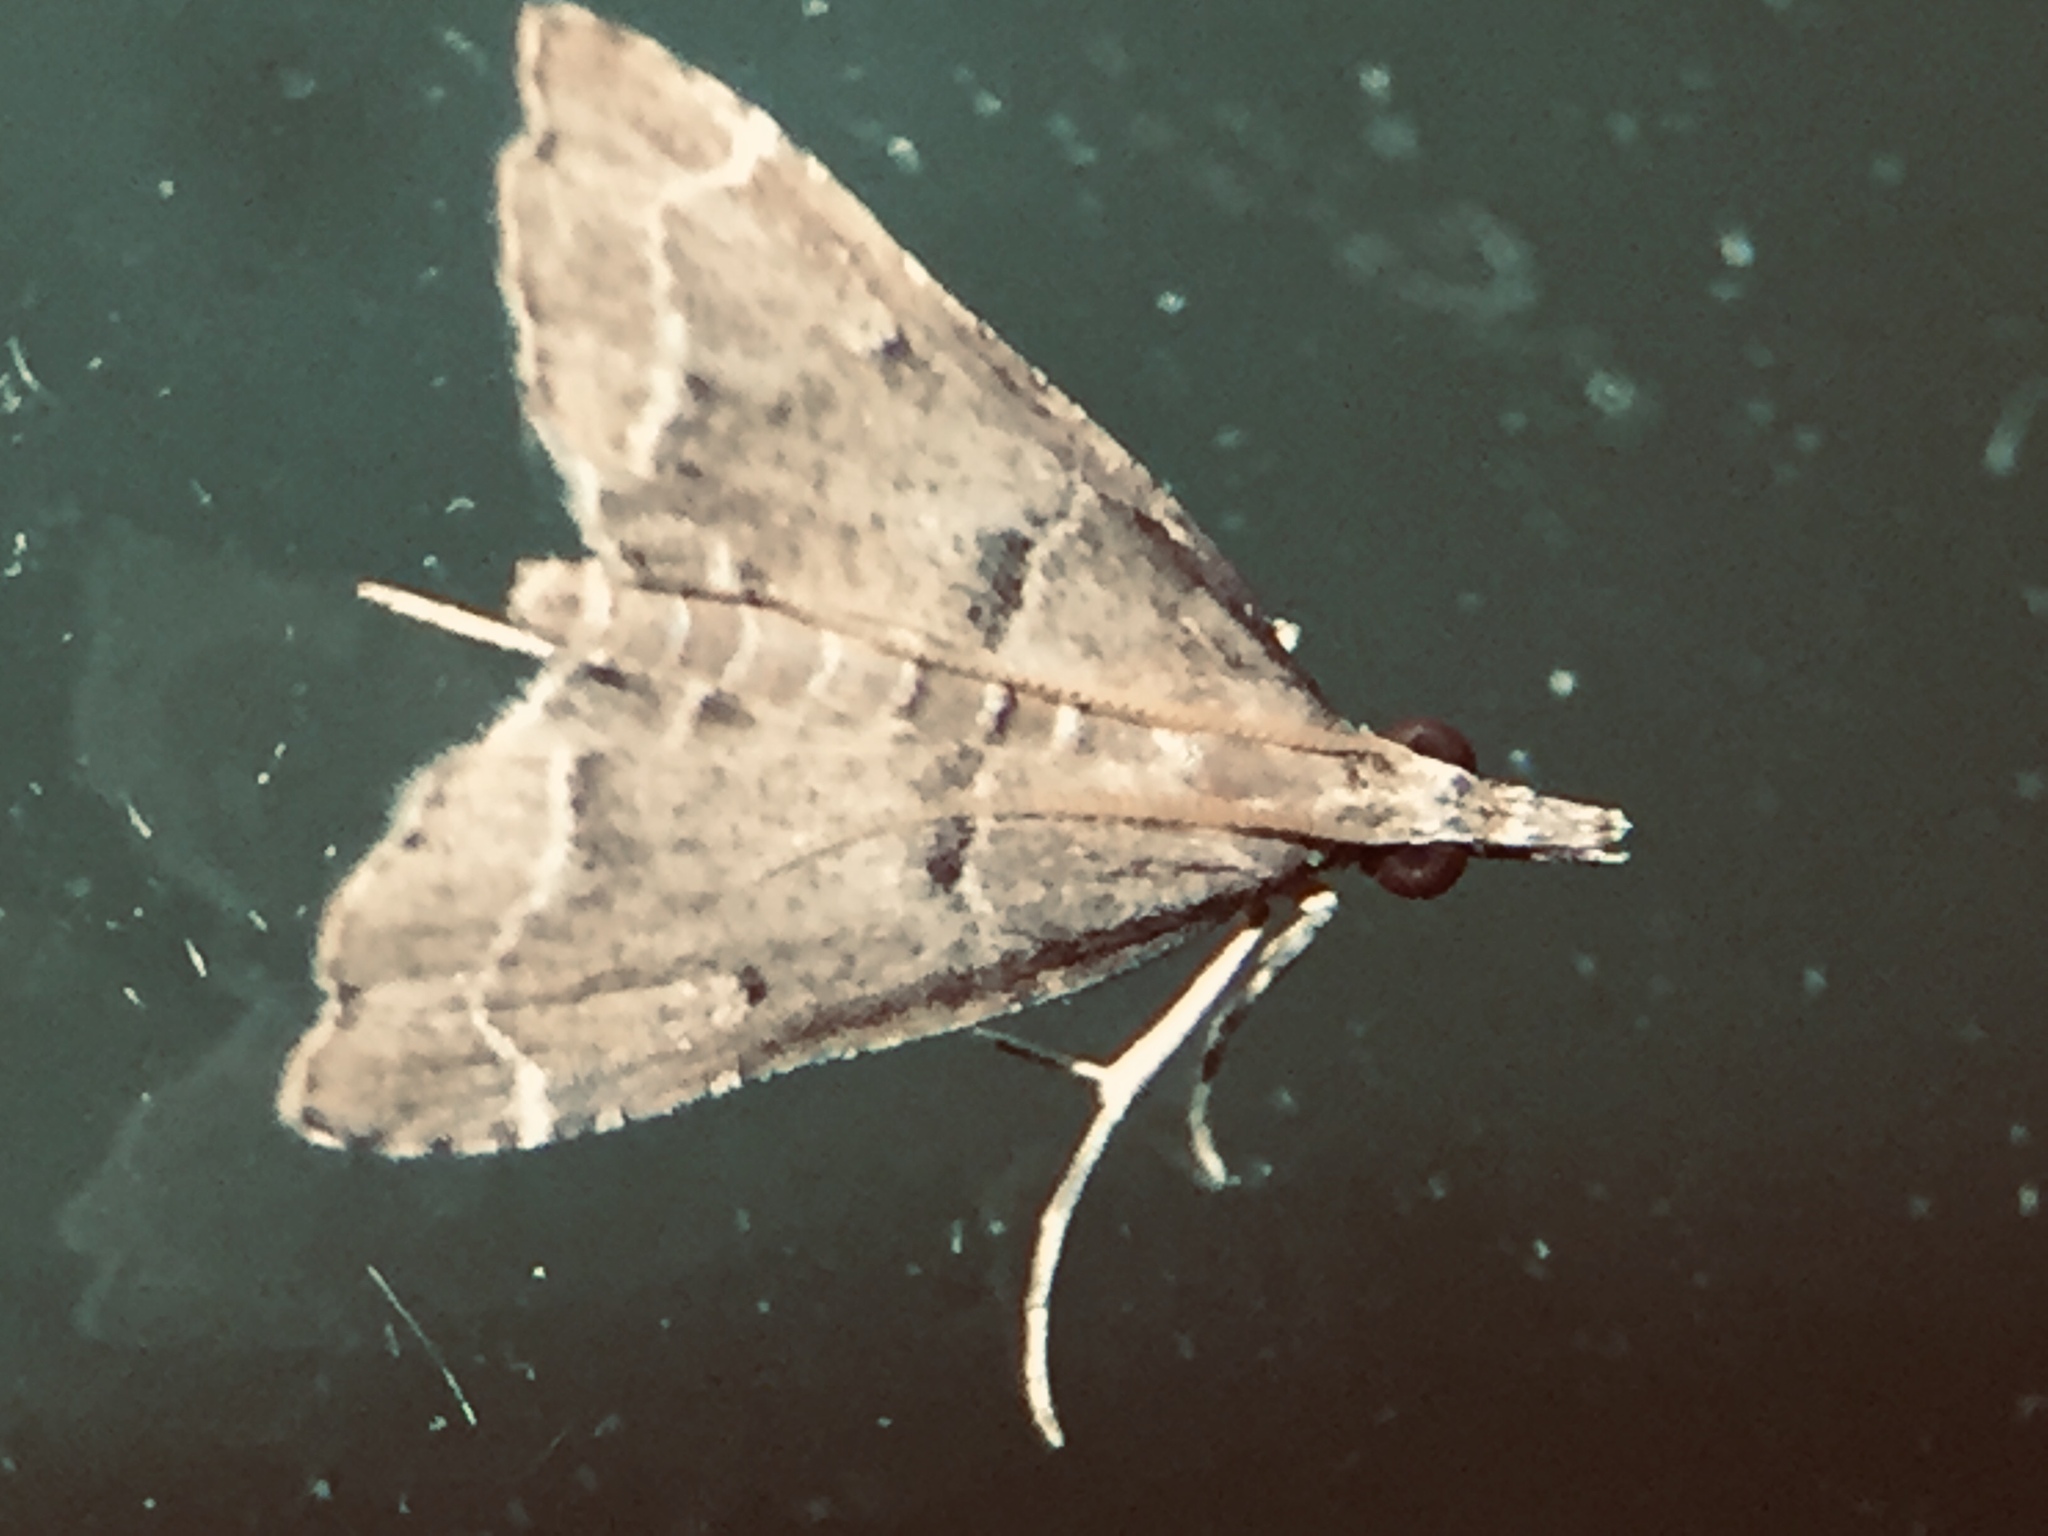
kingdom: Animalia
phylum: Arthropoda
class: Insecta
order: Lepidoptera
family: Crambidae
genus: Diplopseustis
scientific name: Diplopseustis perieresalis
